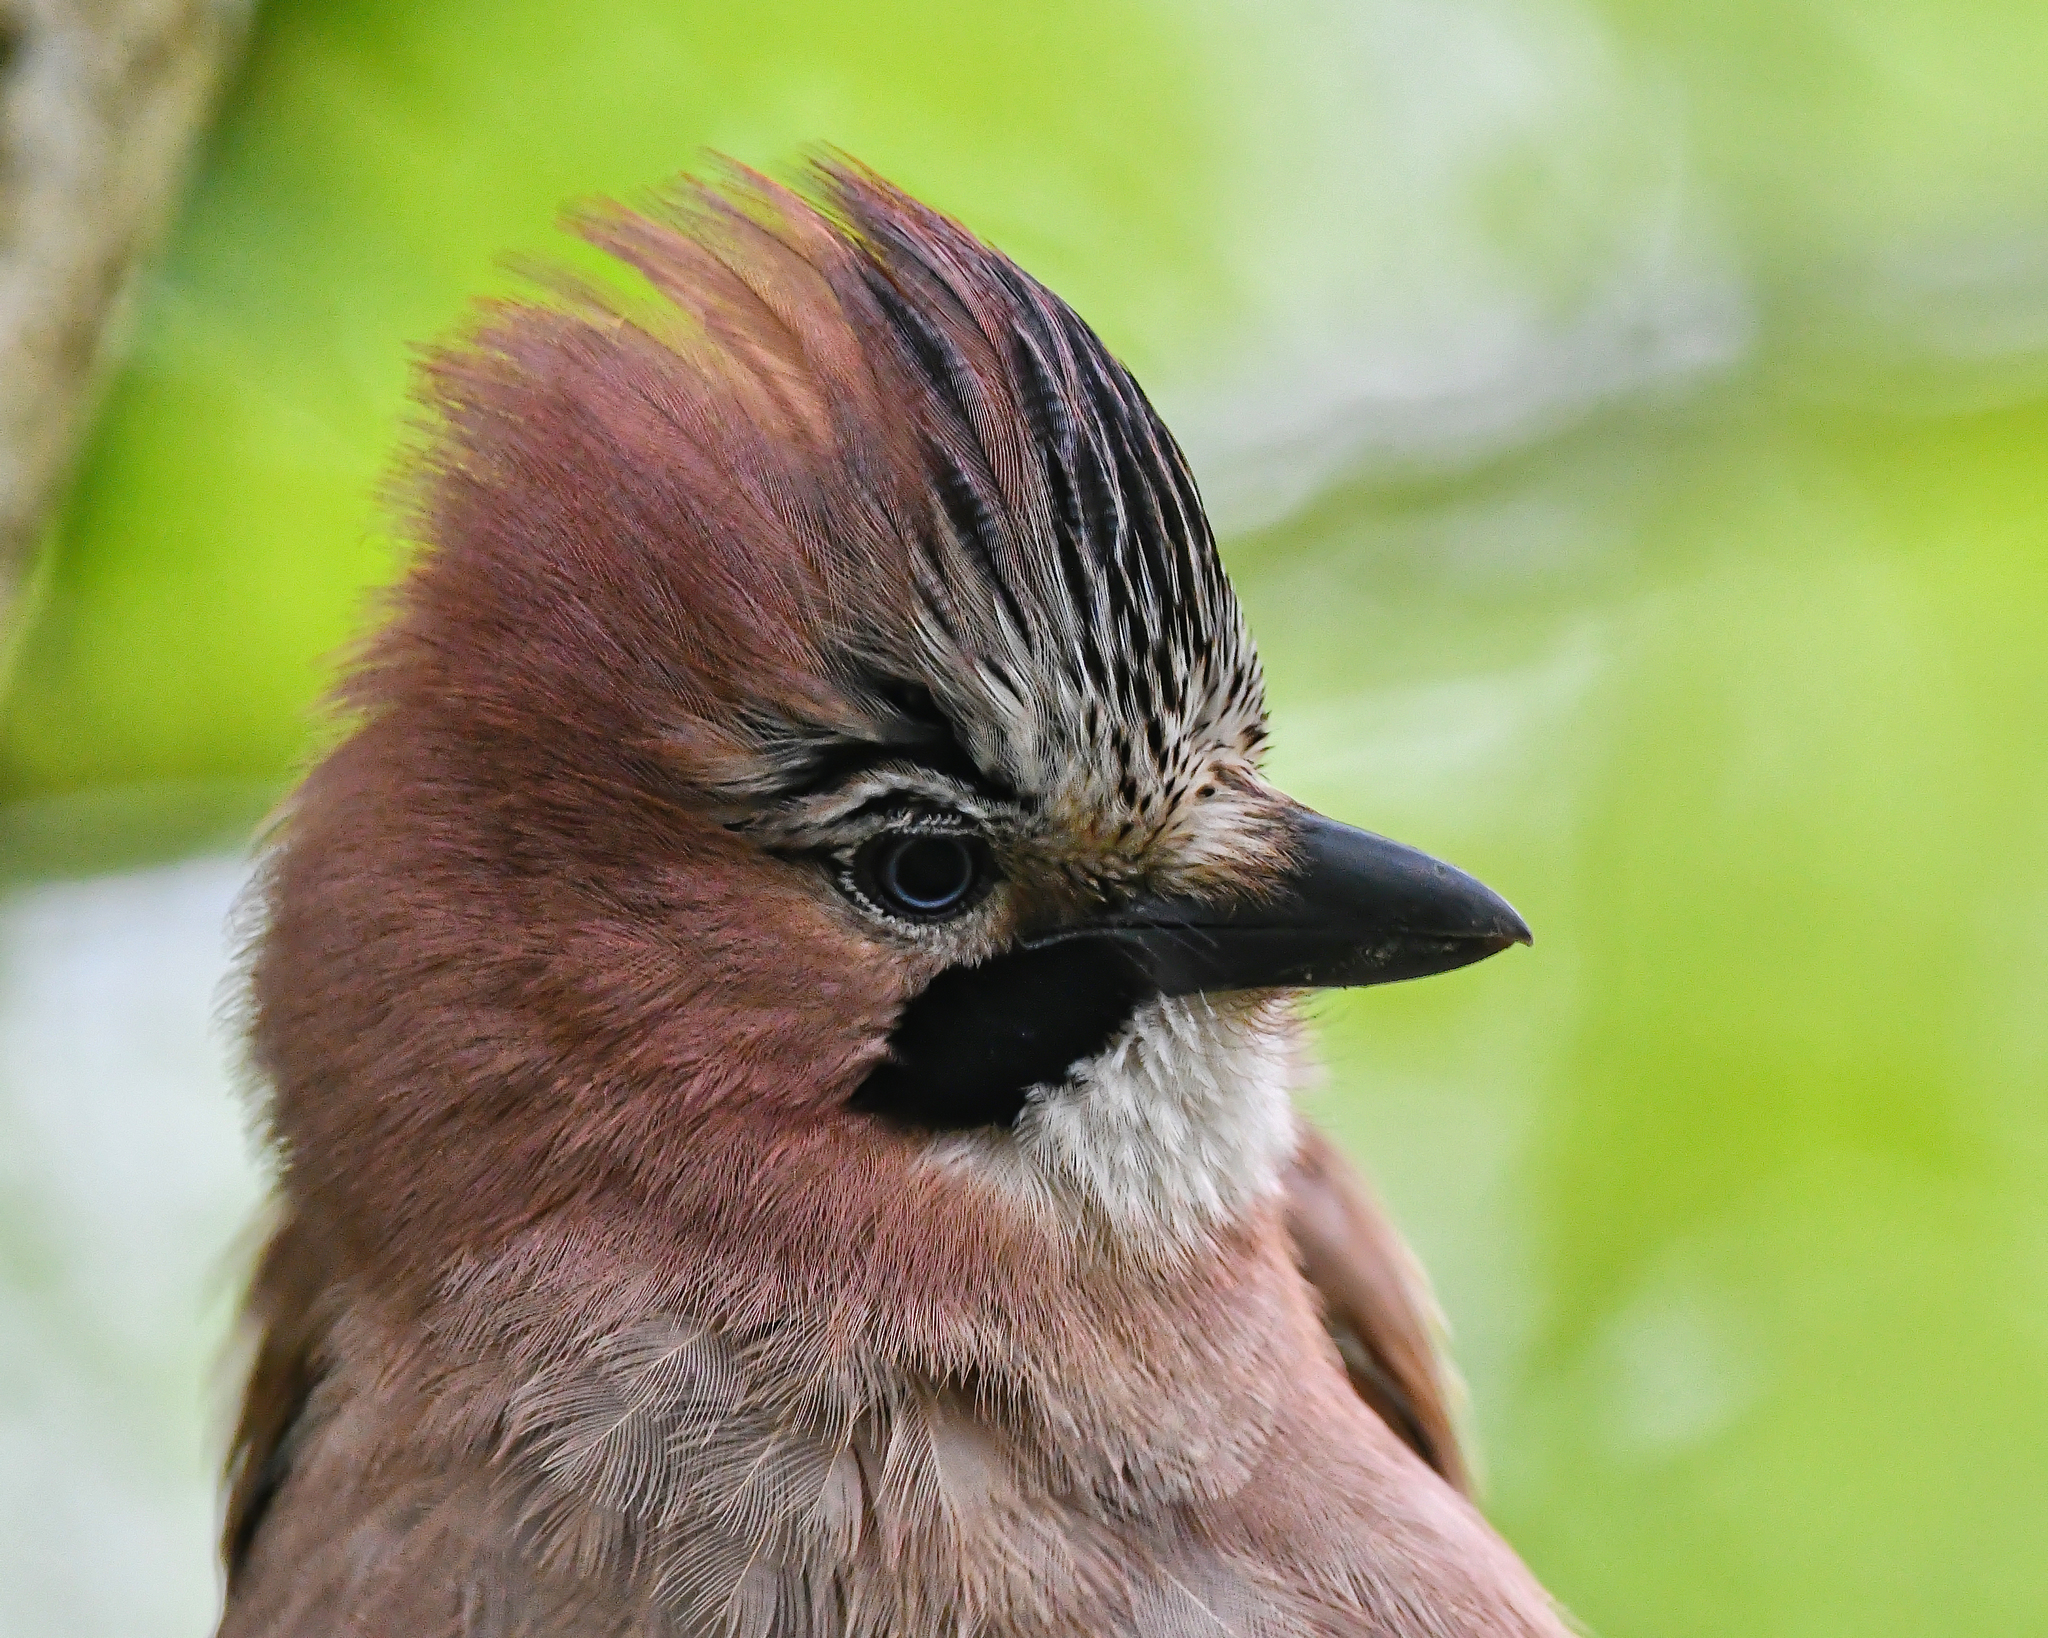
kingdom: Animalia
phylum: Chordata
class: Aves
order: Passeriformes
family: Corvidae
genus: Garrulus
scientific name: Garrulus glandarius
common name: Eurasian jay
